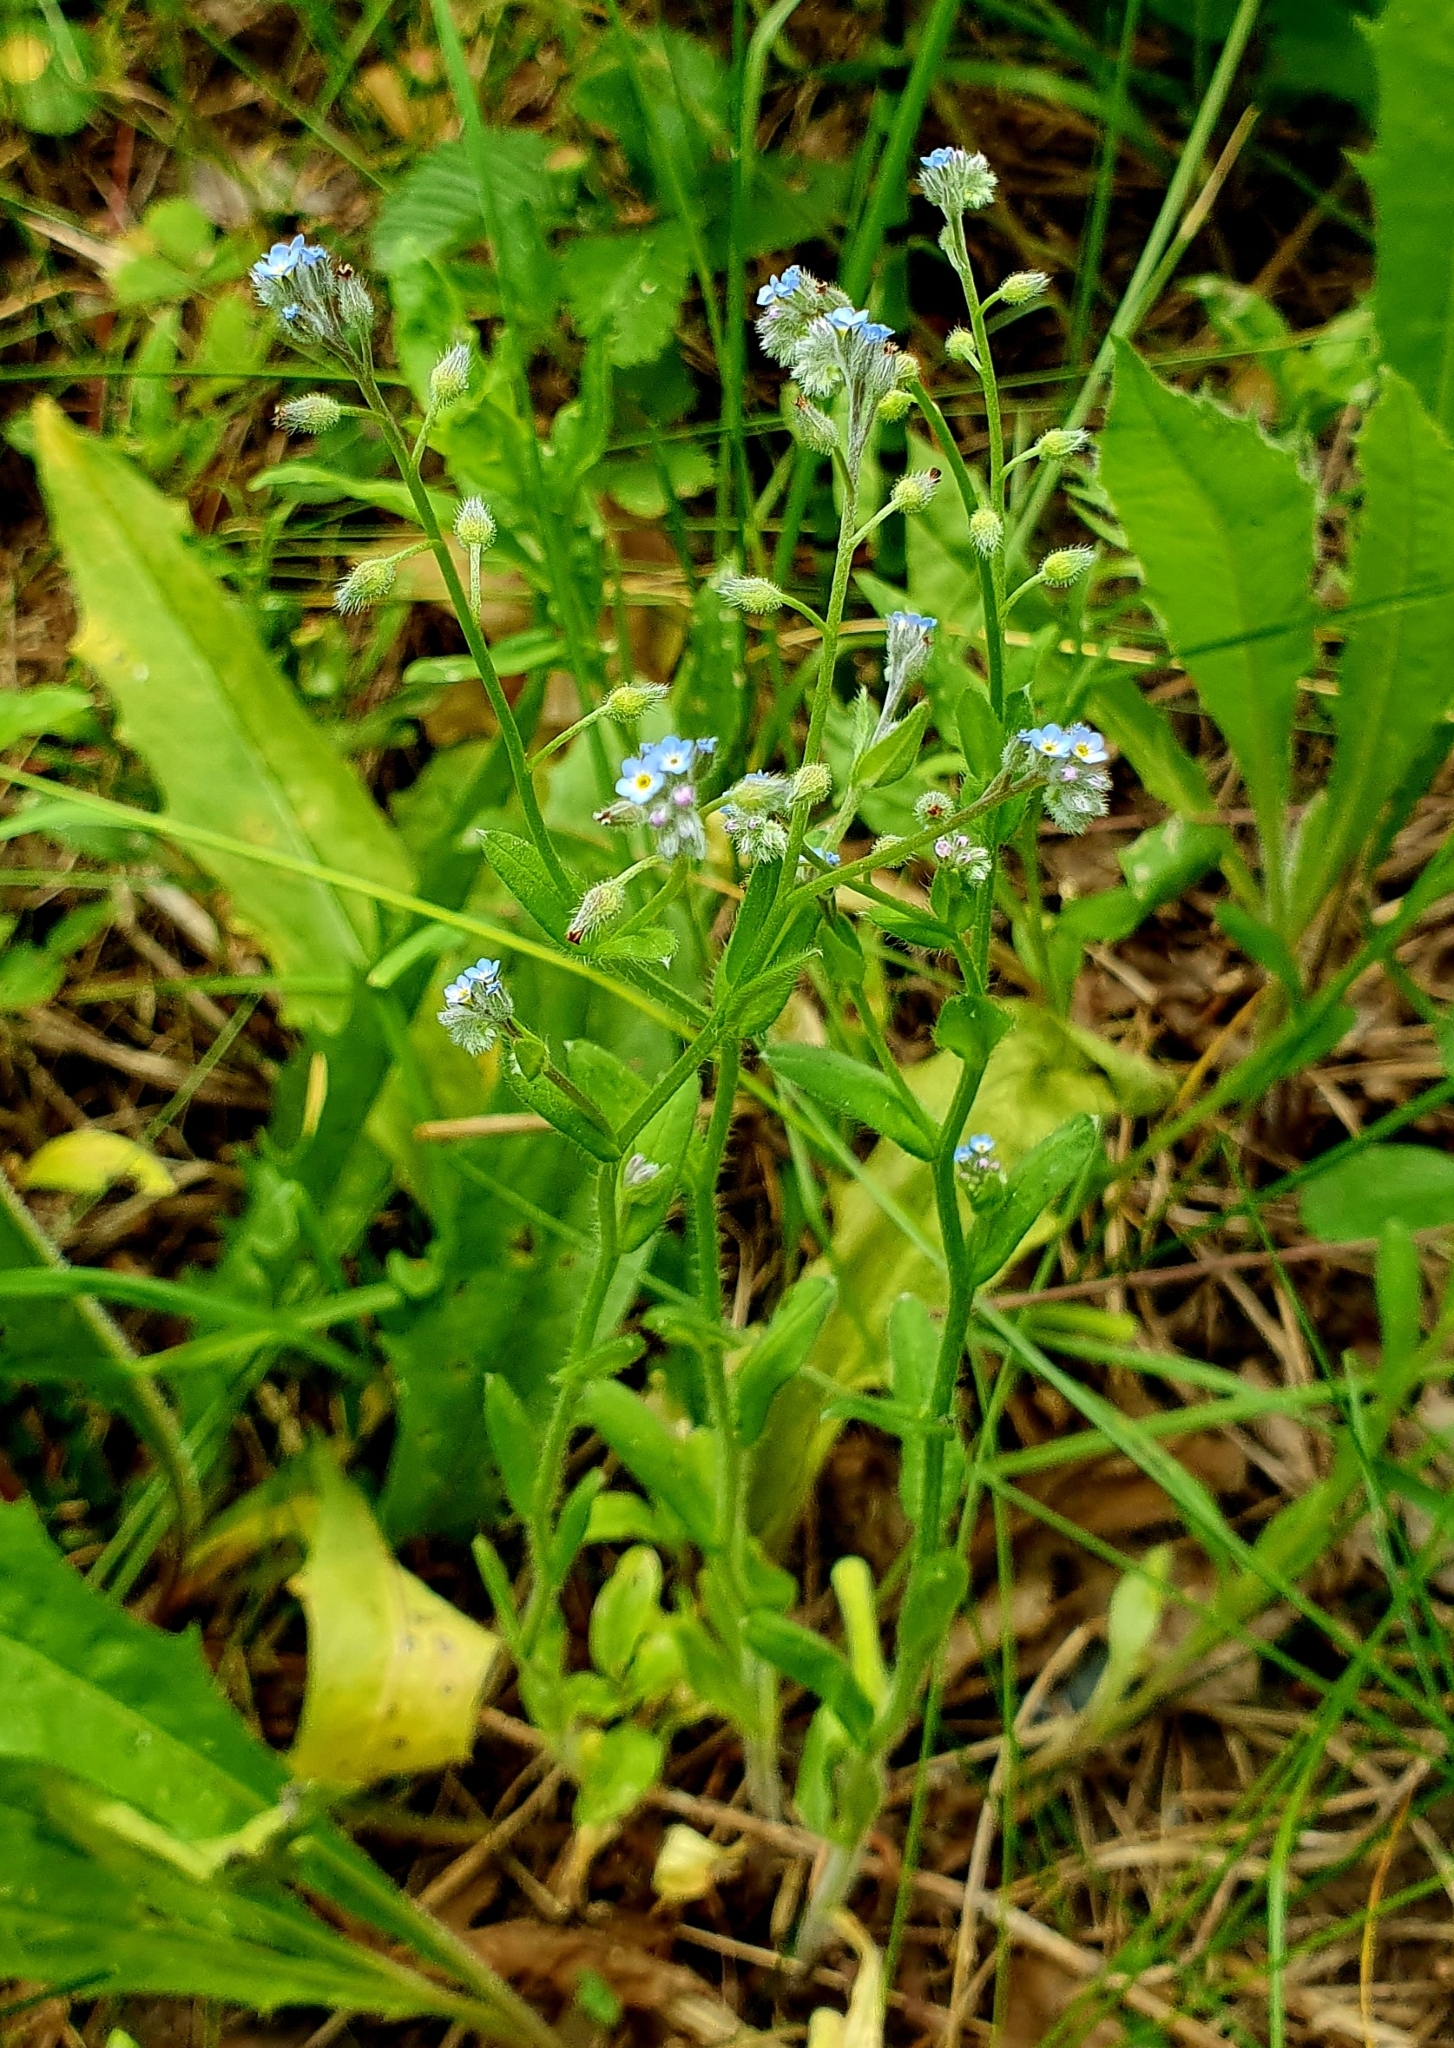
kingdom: Plantae
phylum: Tracheophyta
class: Magnoliopsida
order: Boraginales
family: Boraginaceae
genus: Myosotis
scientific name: Myosotis arvensis
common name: Field forget-me-not
